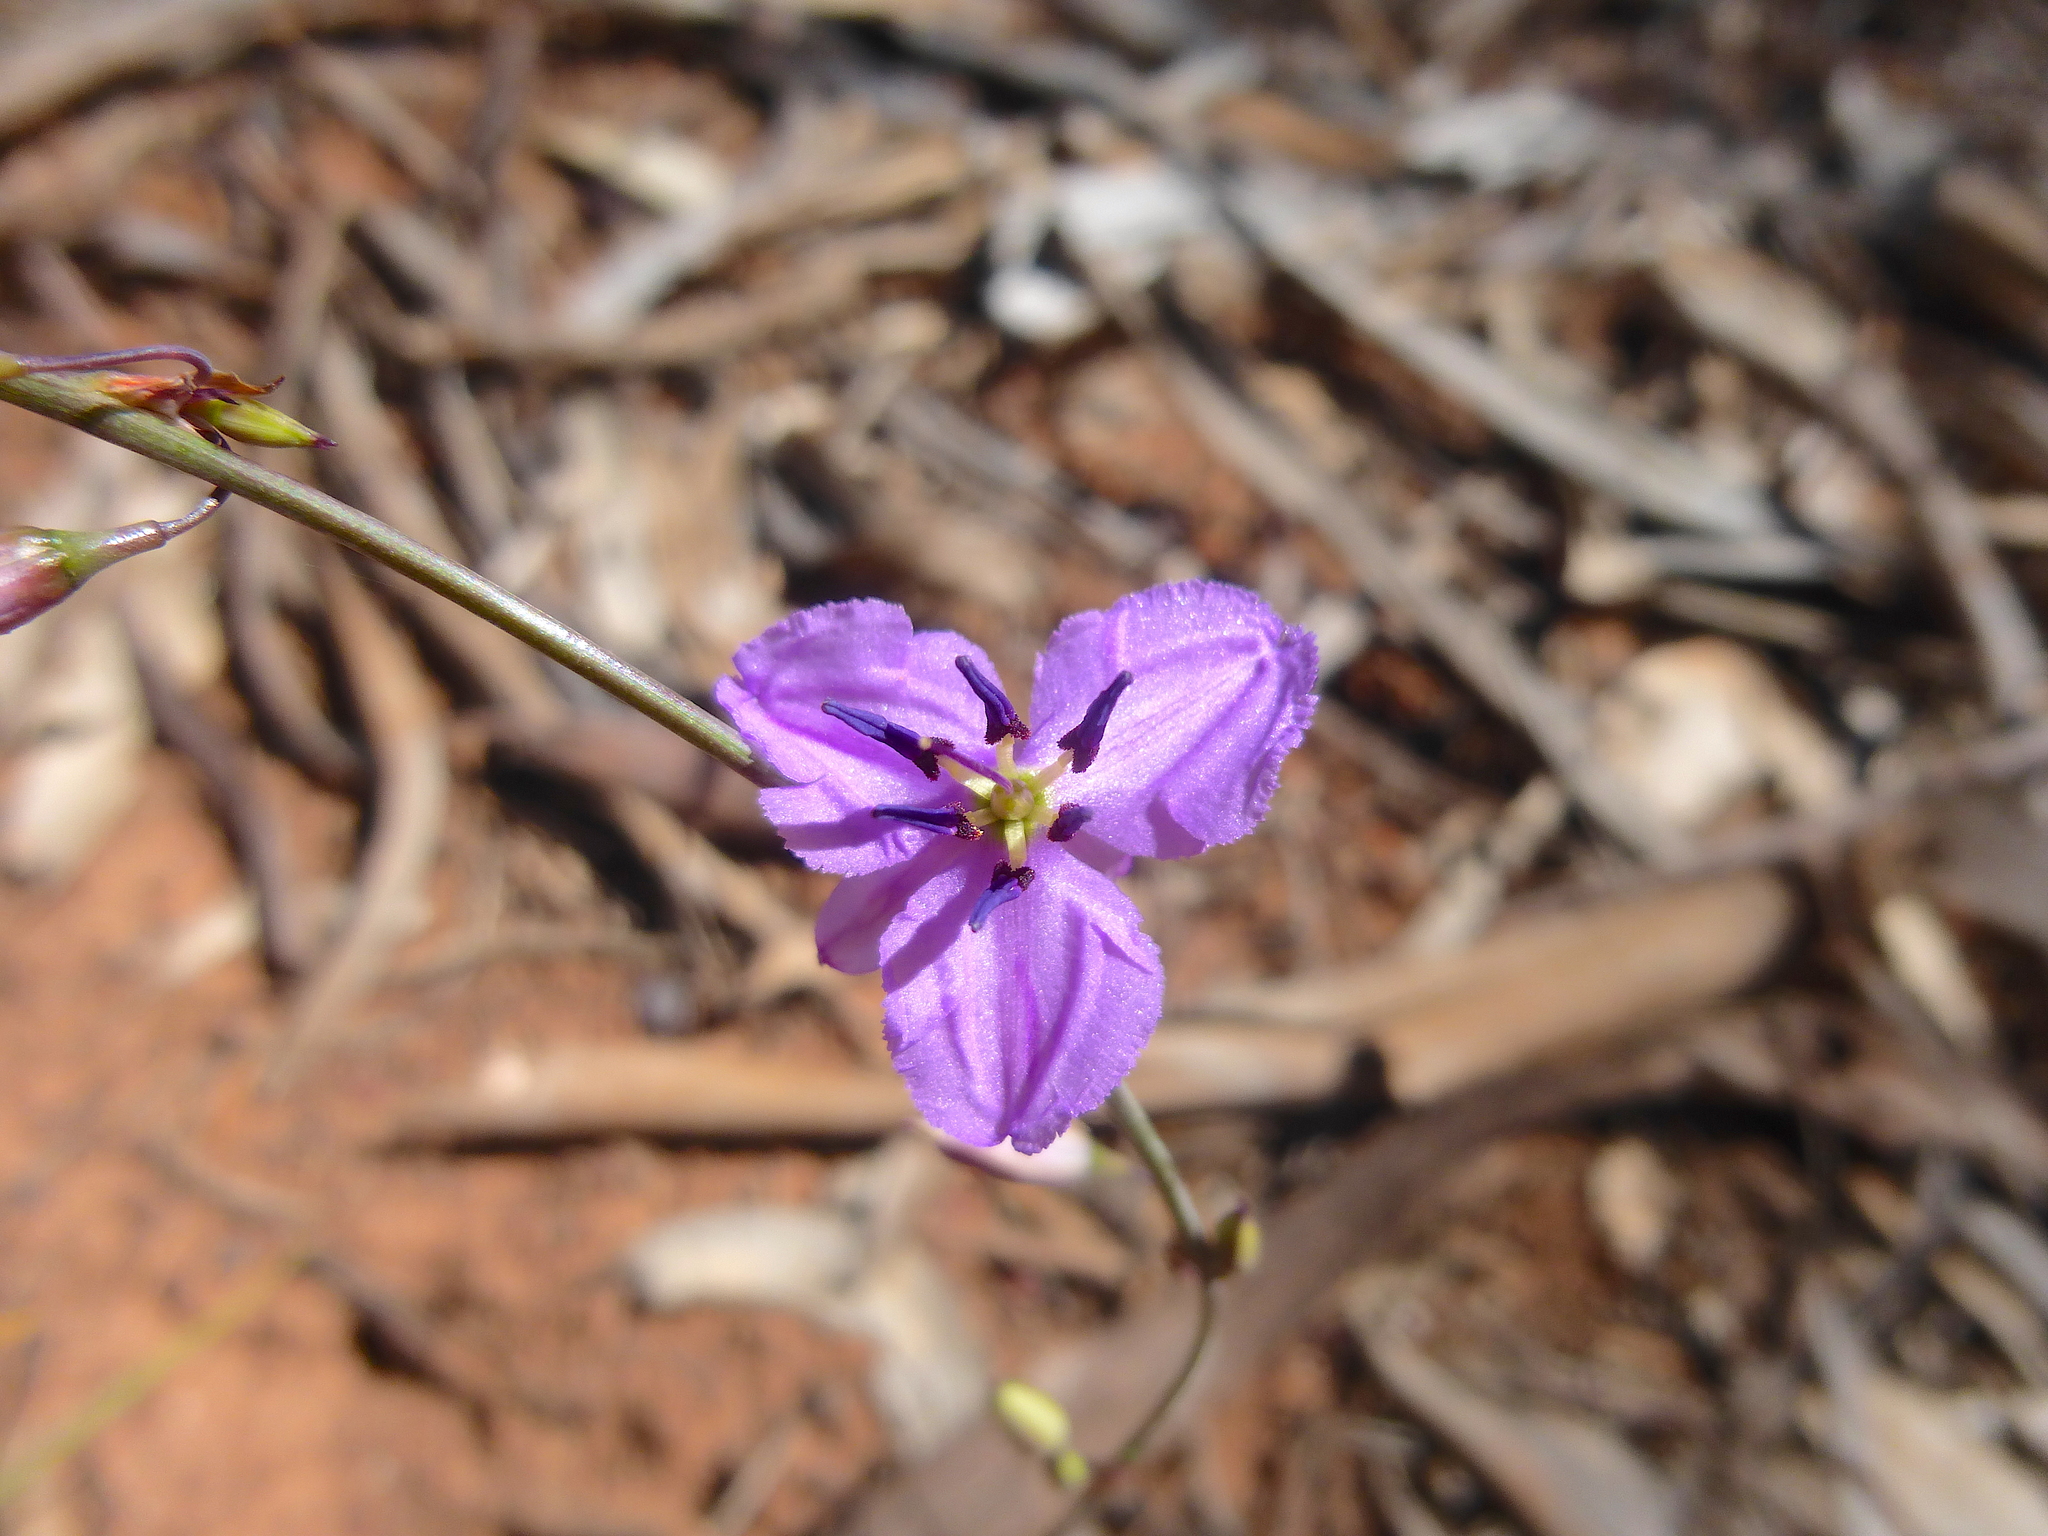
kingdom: Plantae
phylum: Tracheophyta
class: Liliopsida
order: Asparagales
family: Asparagaceae
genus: Dichopogon
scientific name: Dichopogon fimbriatus
